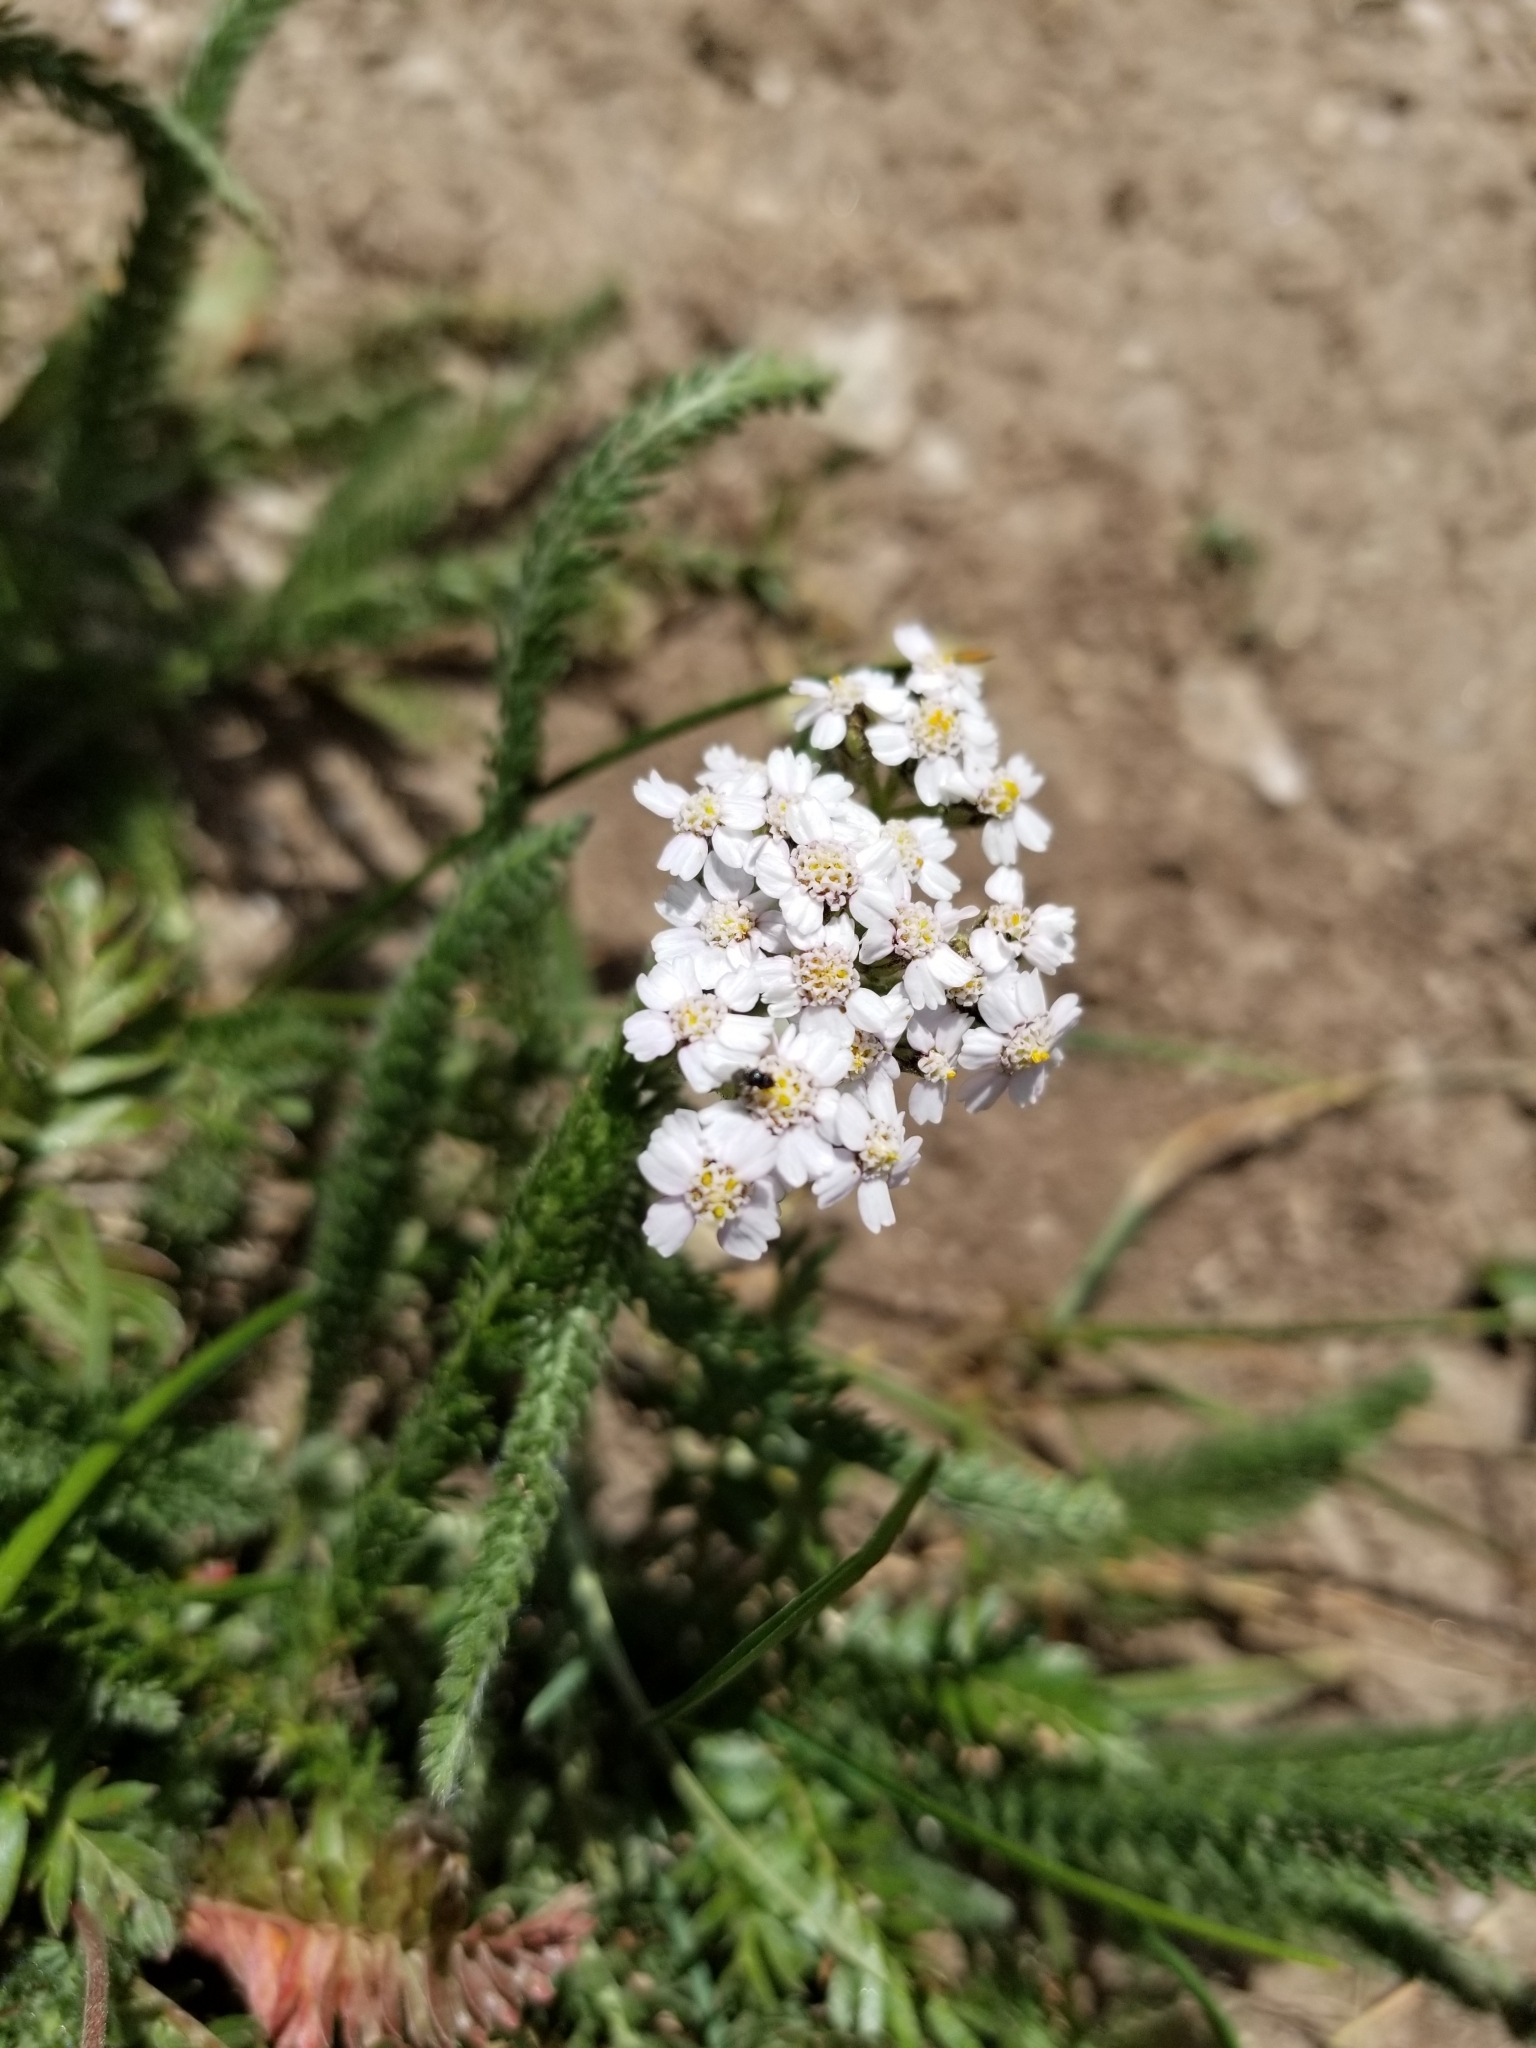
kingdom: Plantae
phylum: Tracheophyta
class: Magnoliopsida
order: Asterales
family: Asteraceae
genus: Achillea
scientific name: Achillea millefolium
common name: Yarrow
